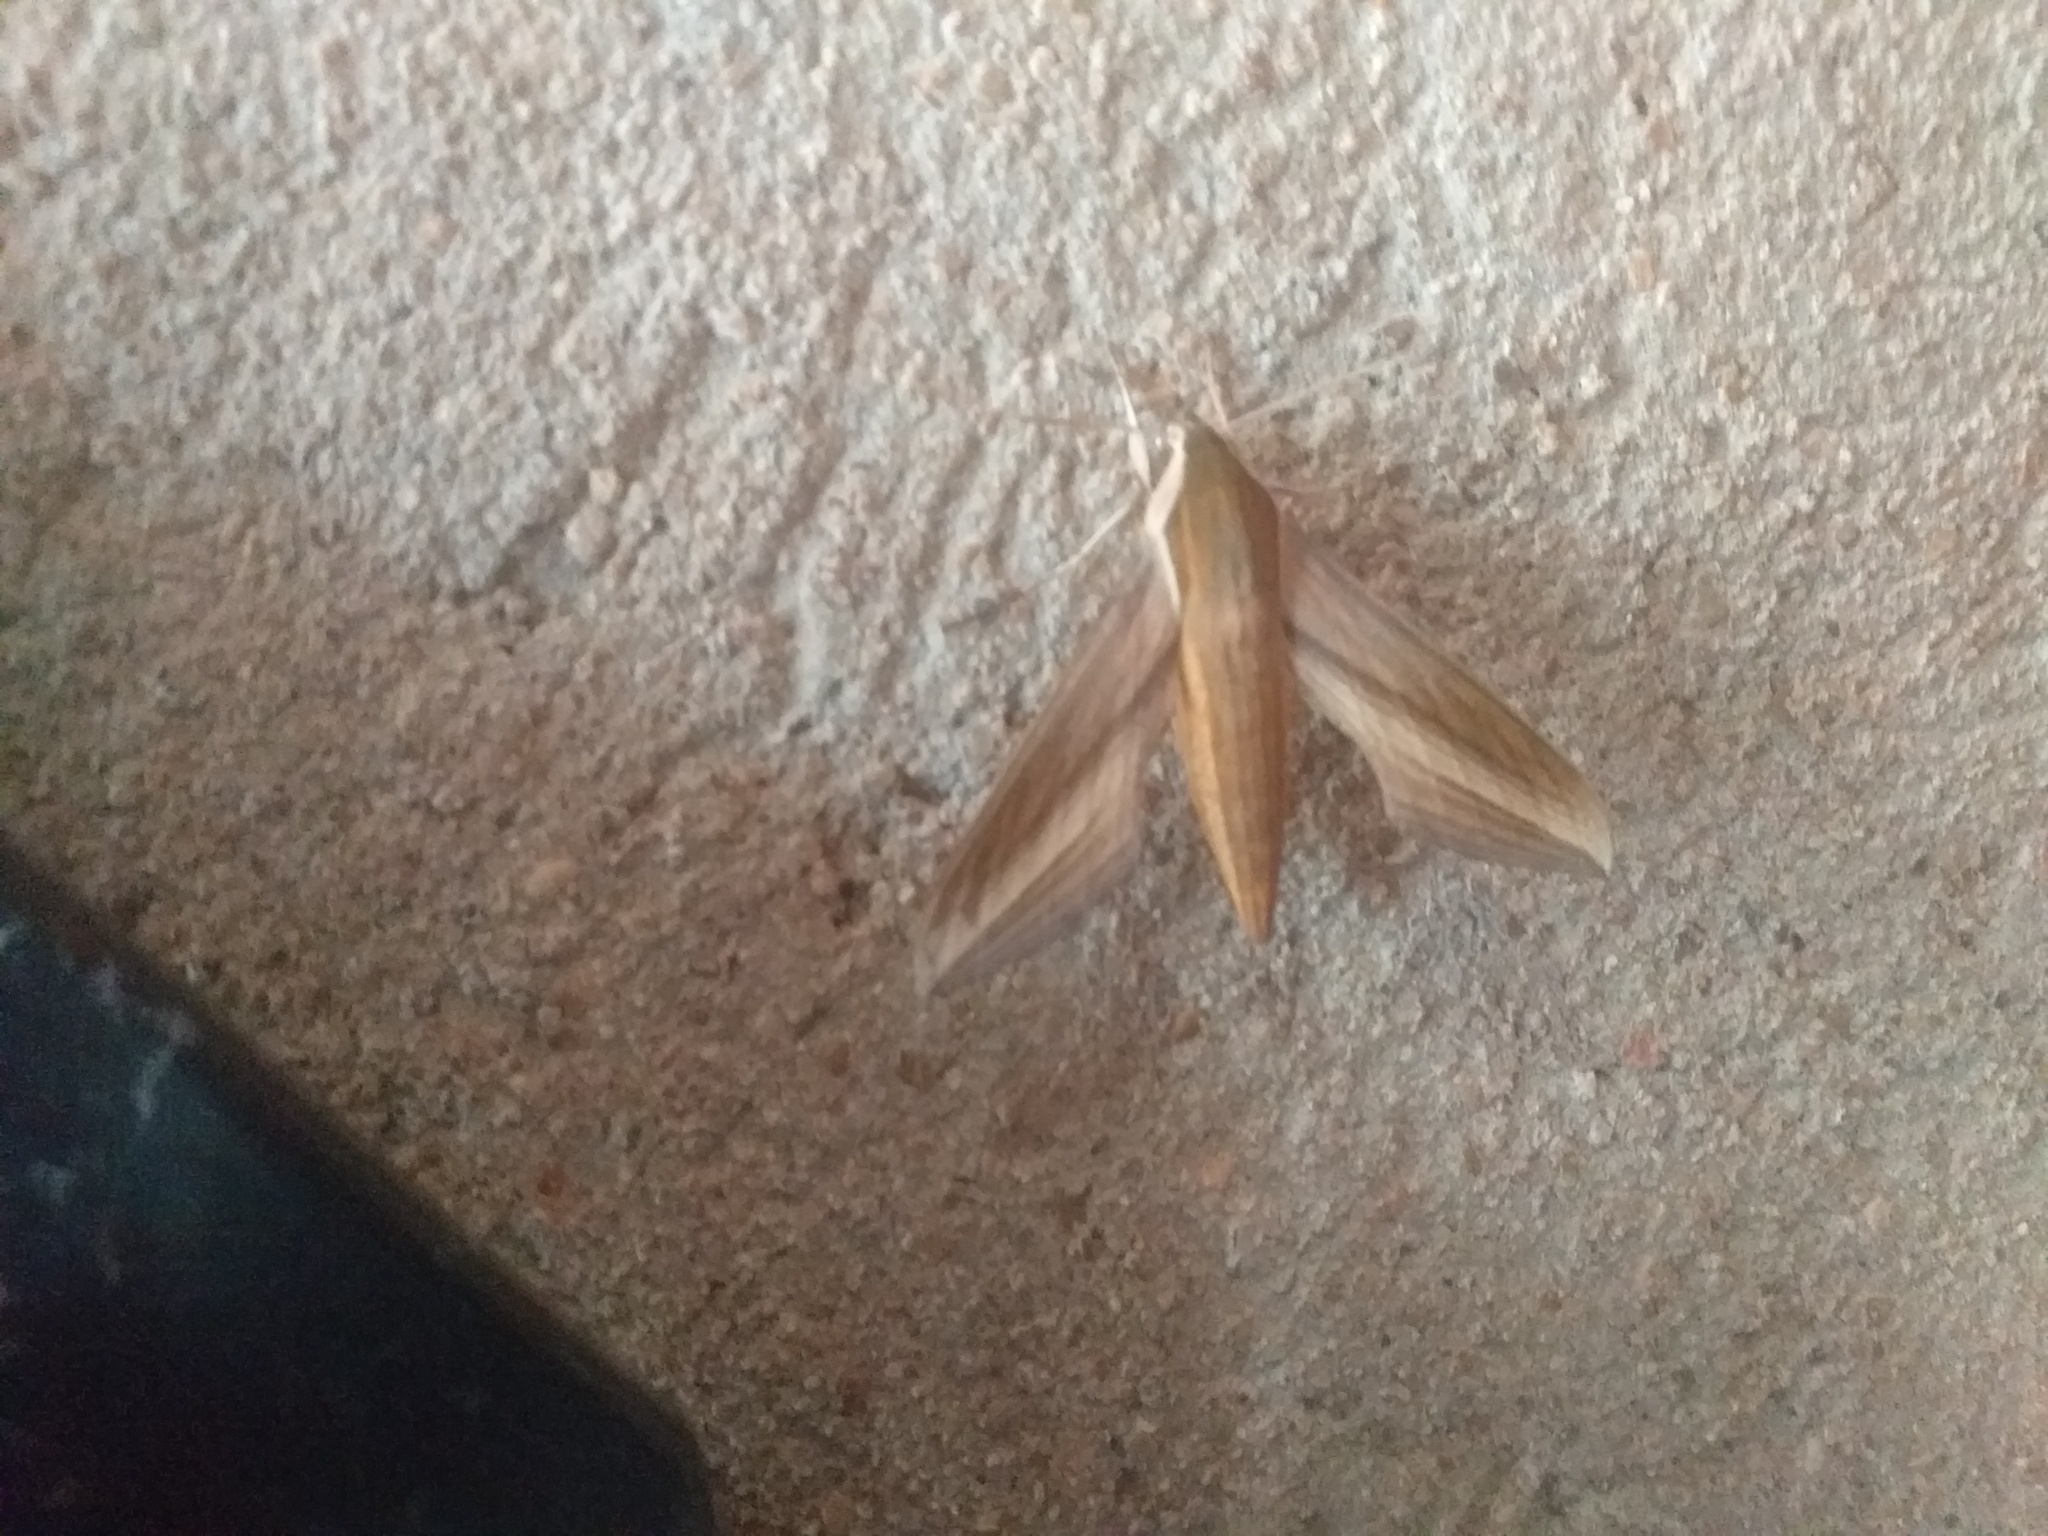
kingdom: Animalia
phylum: Arthropoda
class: Insecta
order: Lepidoptera
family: Sphingidae
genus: Xylophanes
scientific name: Xylophanes tersa
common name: Tersa sphinx
